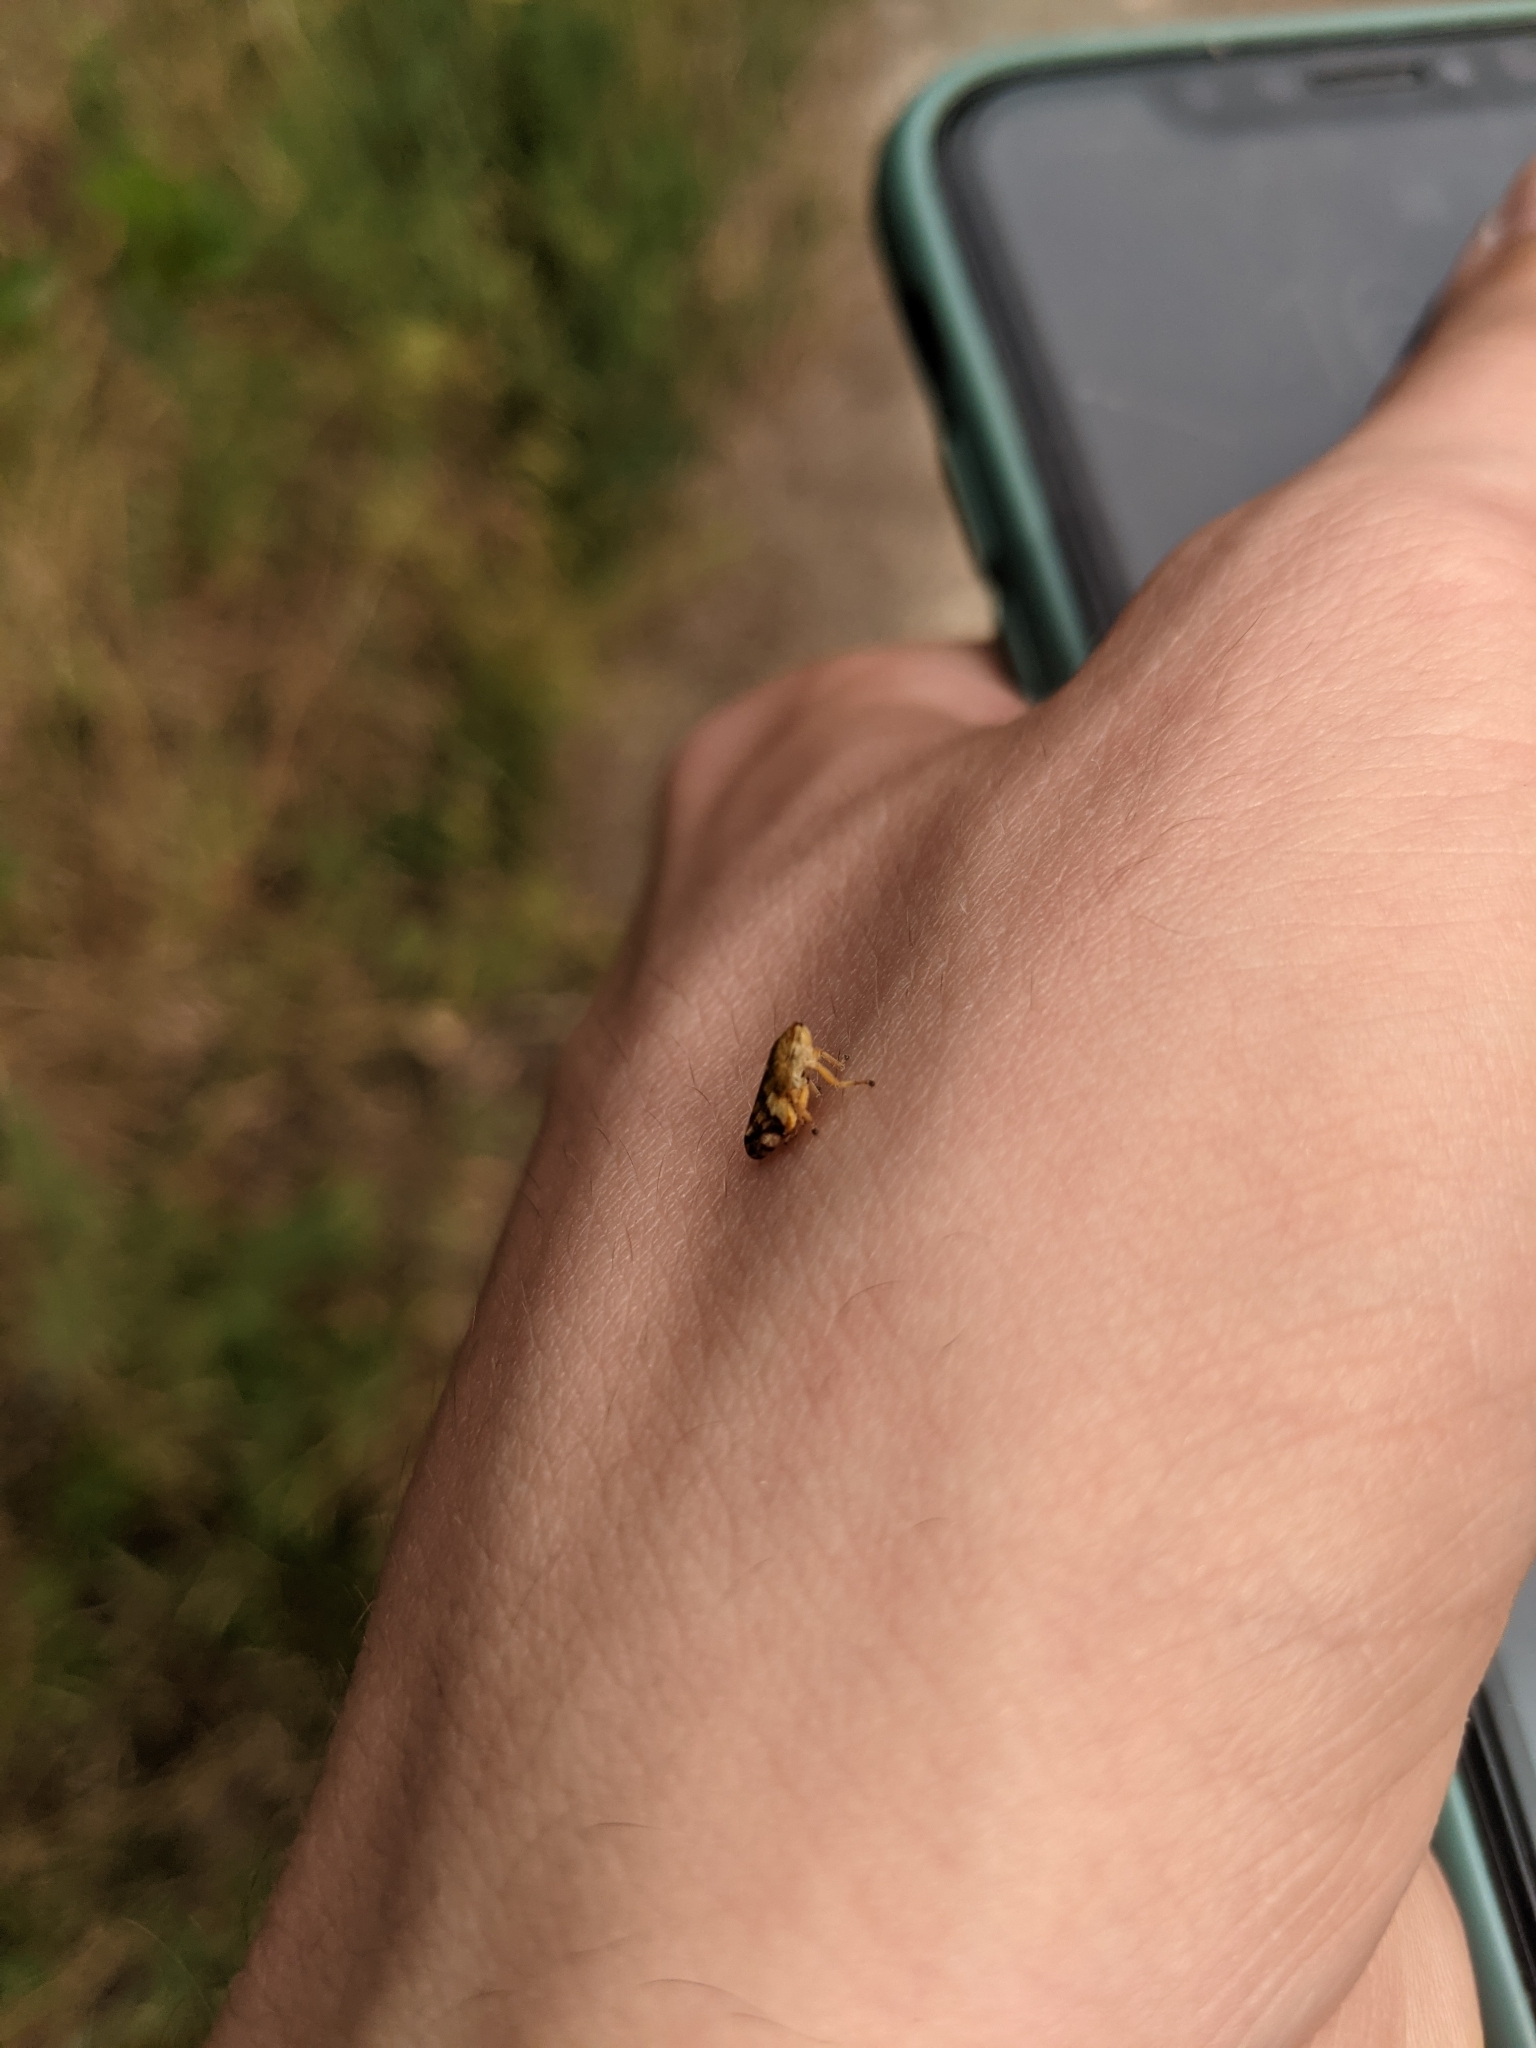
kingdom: Animalia
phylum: Arthropoda
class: Insecta
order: Hemiptera
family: Aphrophoridae
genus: Philaenus
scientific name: Philaenus spumarius
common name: Meadow spittlebug
